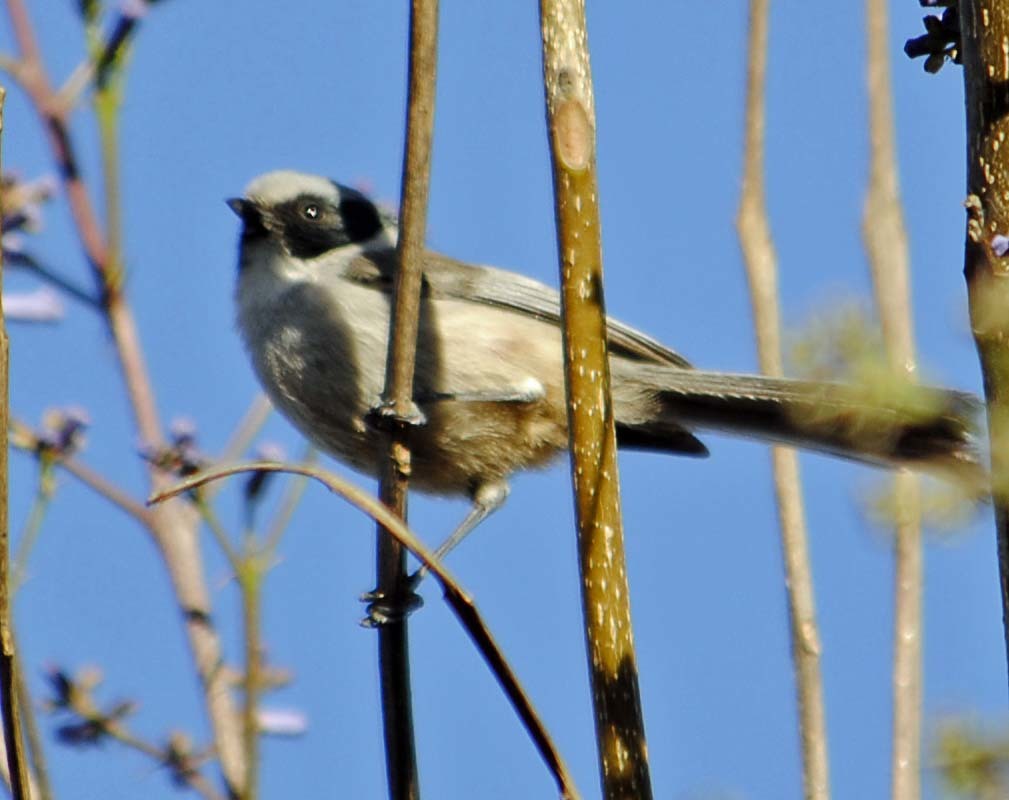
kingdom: Animalia
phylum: Chordata
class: Aves
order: Passeriformes
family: Aegithalidae
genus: Psaltriparus
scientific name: Psaltriparus minimus
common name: American bushtit
